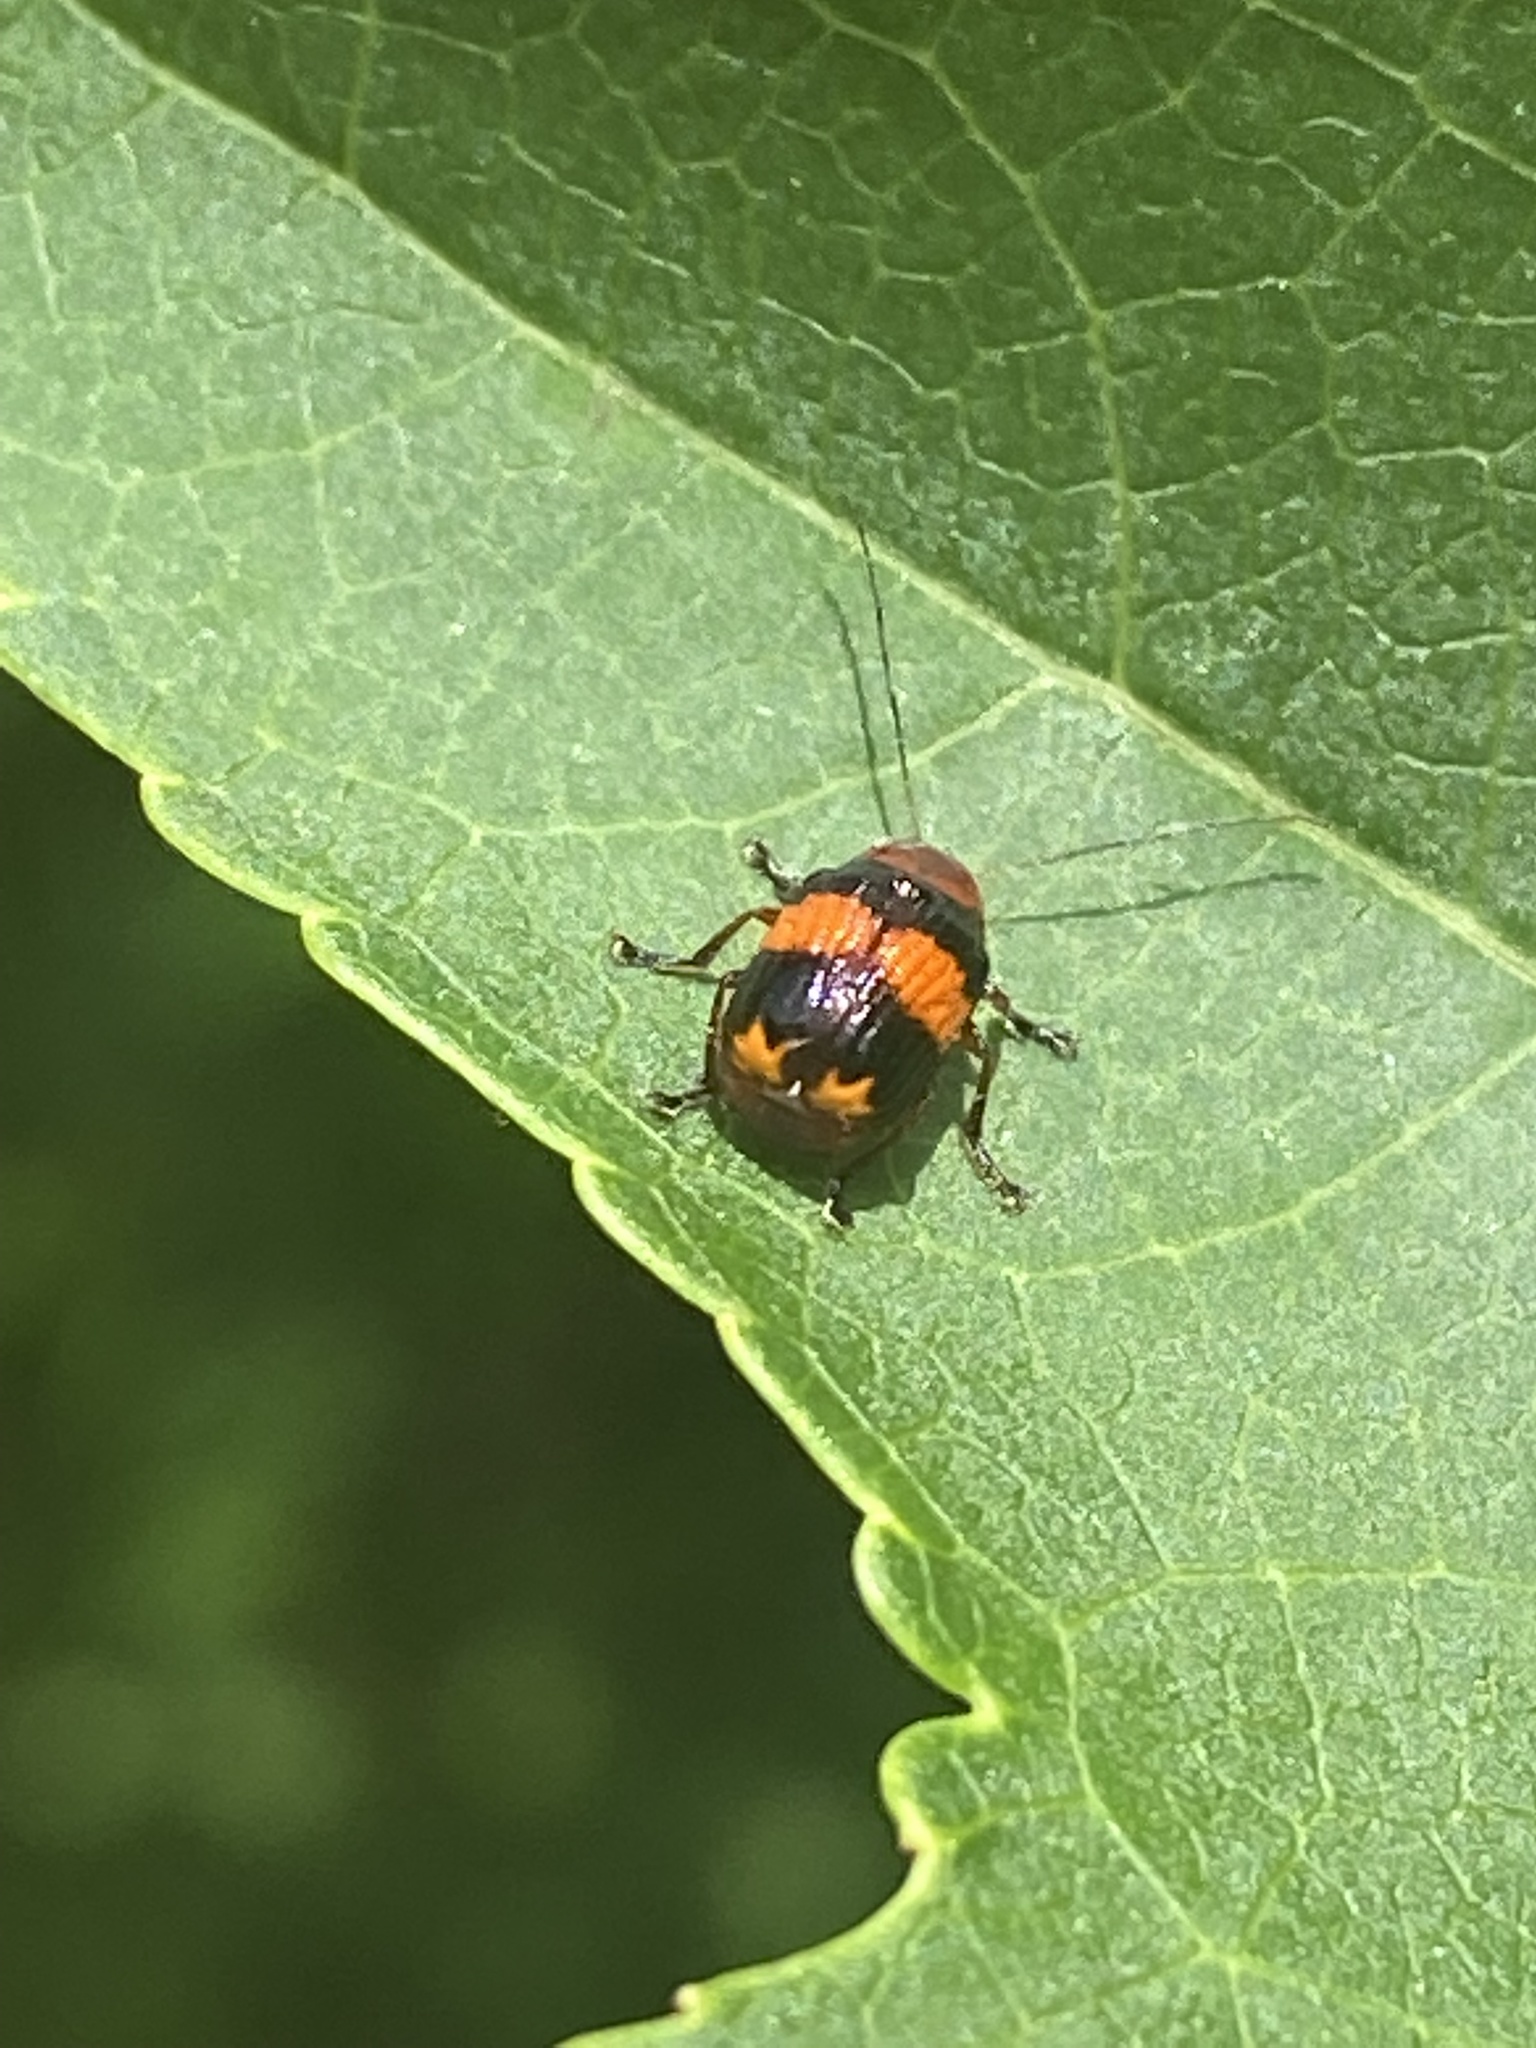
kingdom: Animalia
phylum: Arthropoda
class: Insecta
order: Coleoptera
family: Chrysomelidae
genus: Bassareus
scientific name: Bassareus detritus
